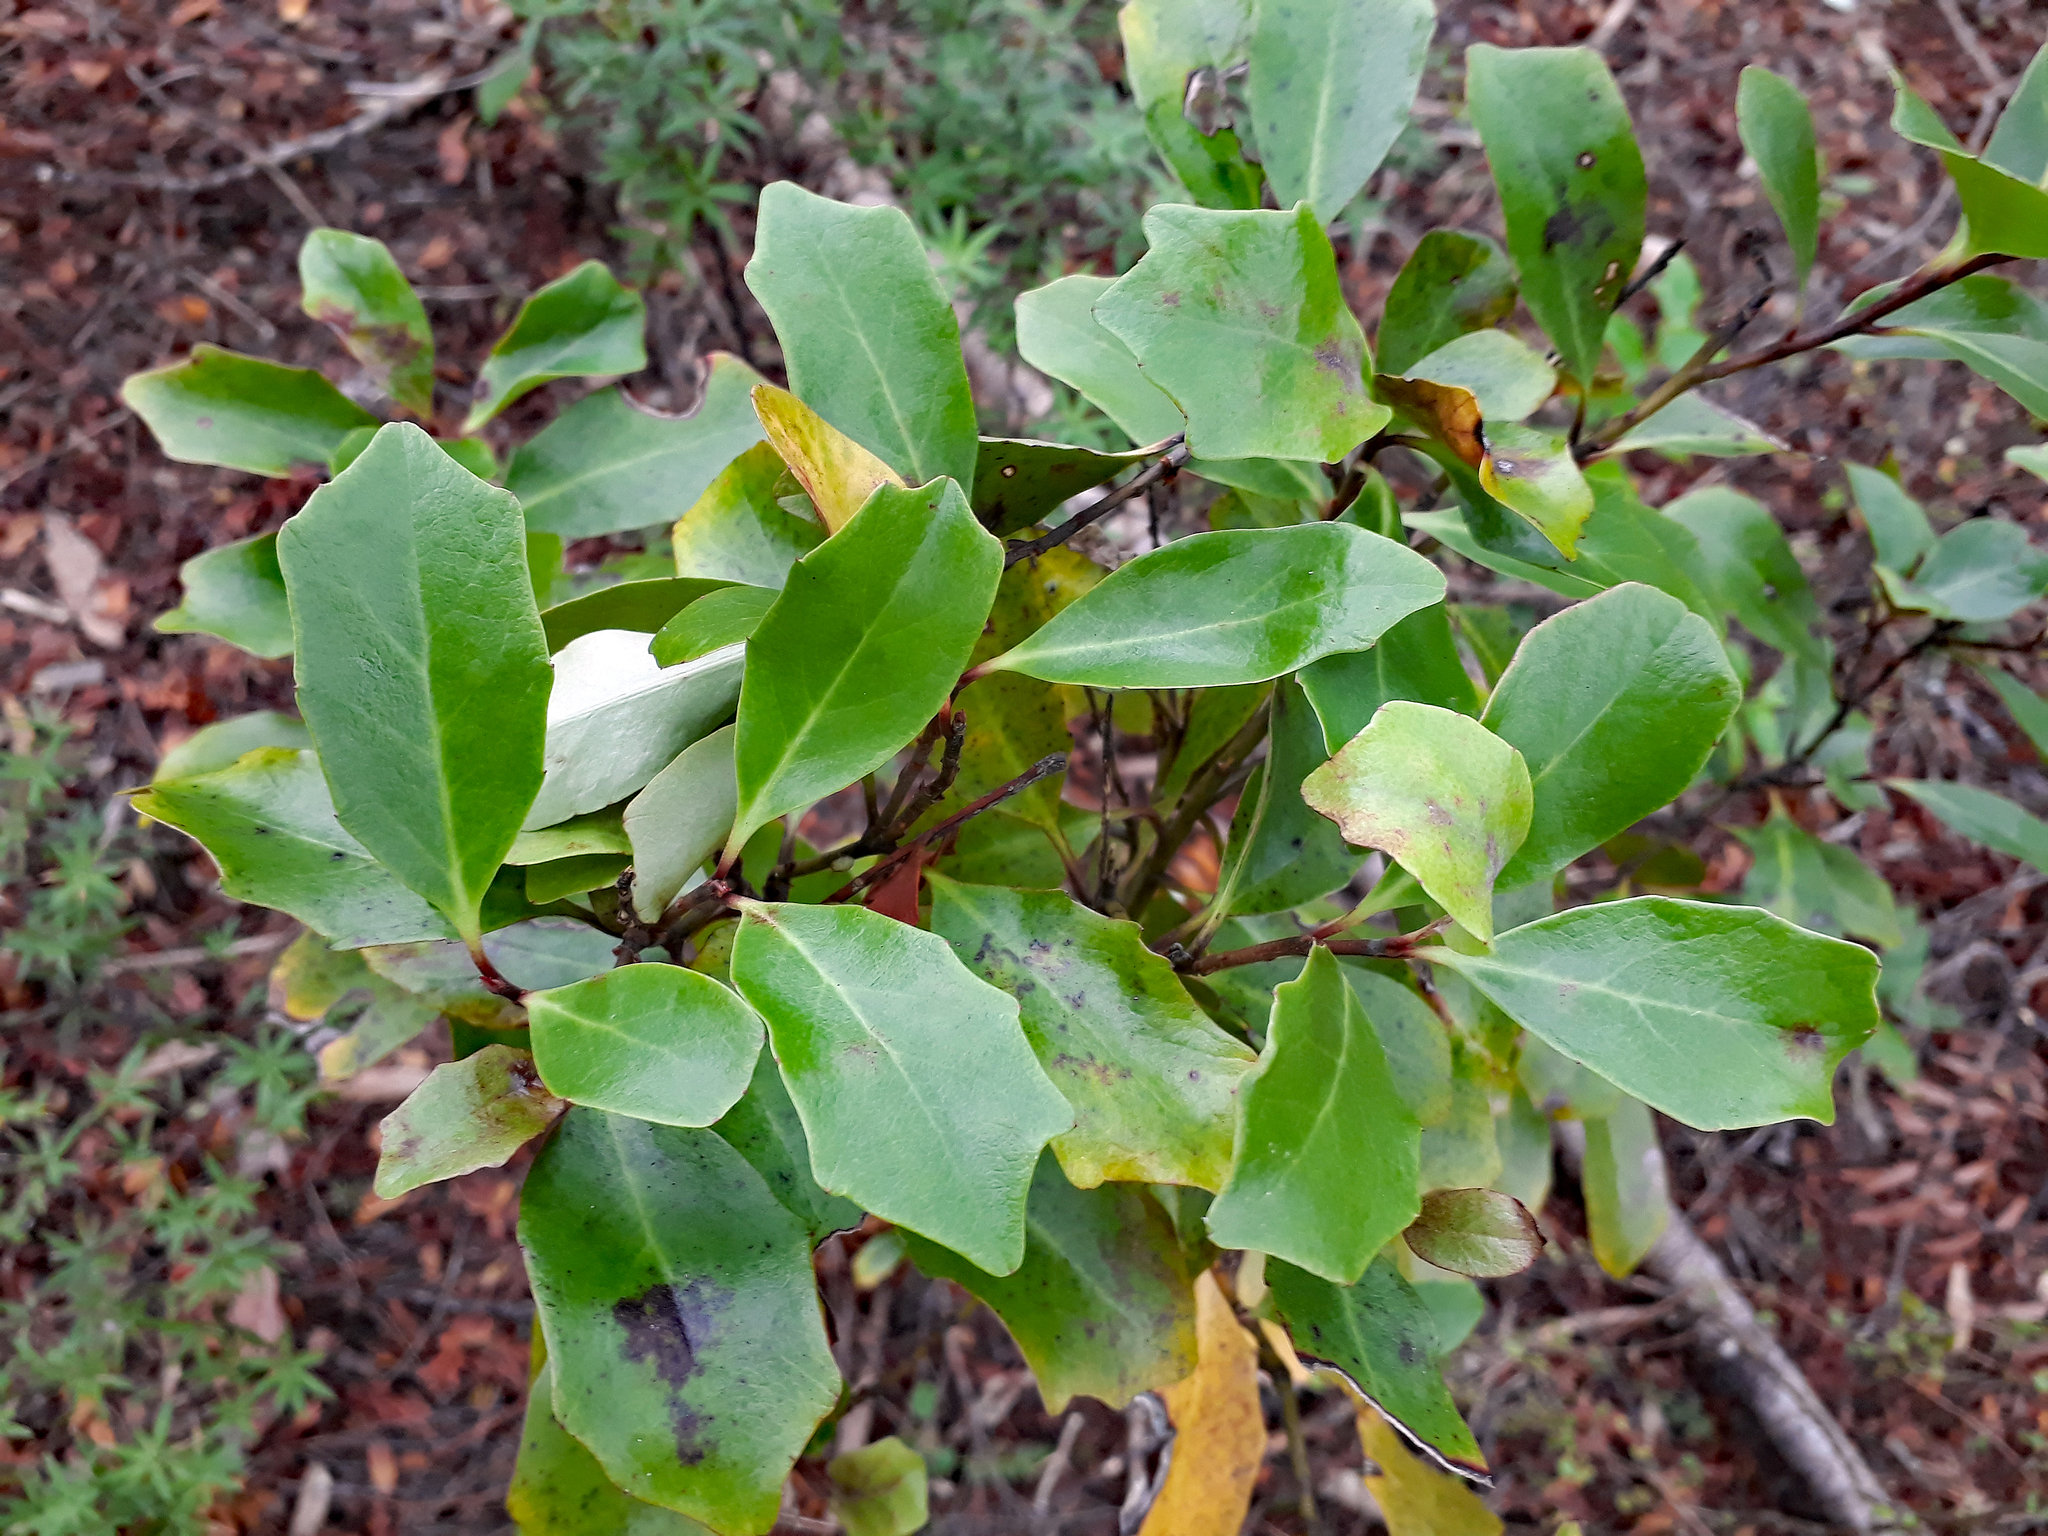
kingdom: Plantae
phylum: Tracheophyta
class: Magnoliopsida
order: Asterales
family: Alseuosmiaceae
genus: Alseuosmia
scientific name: Alseuosmia quercifolia
